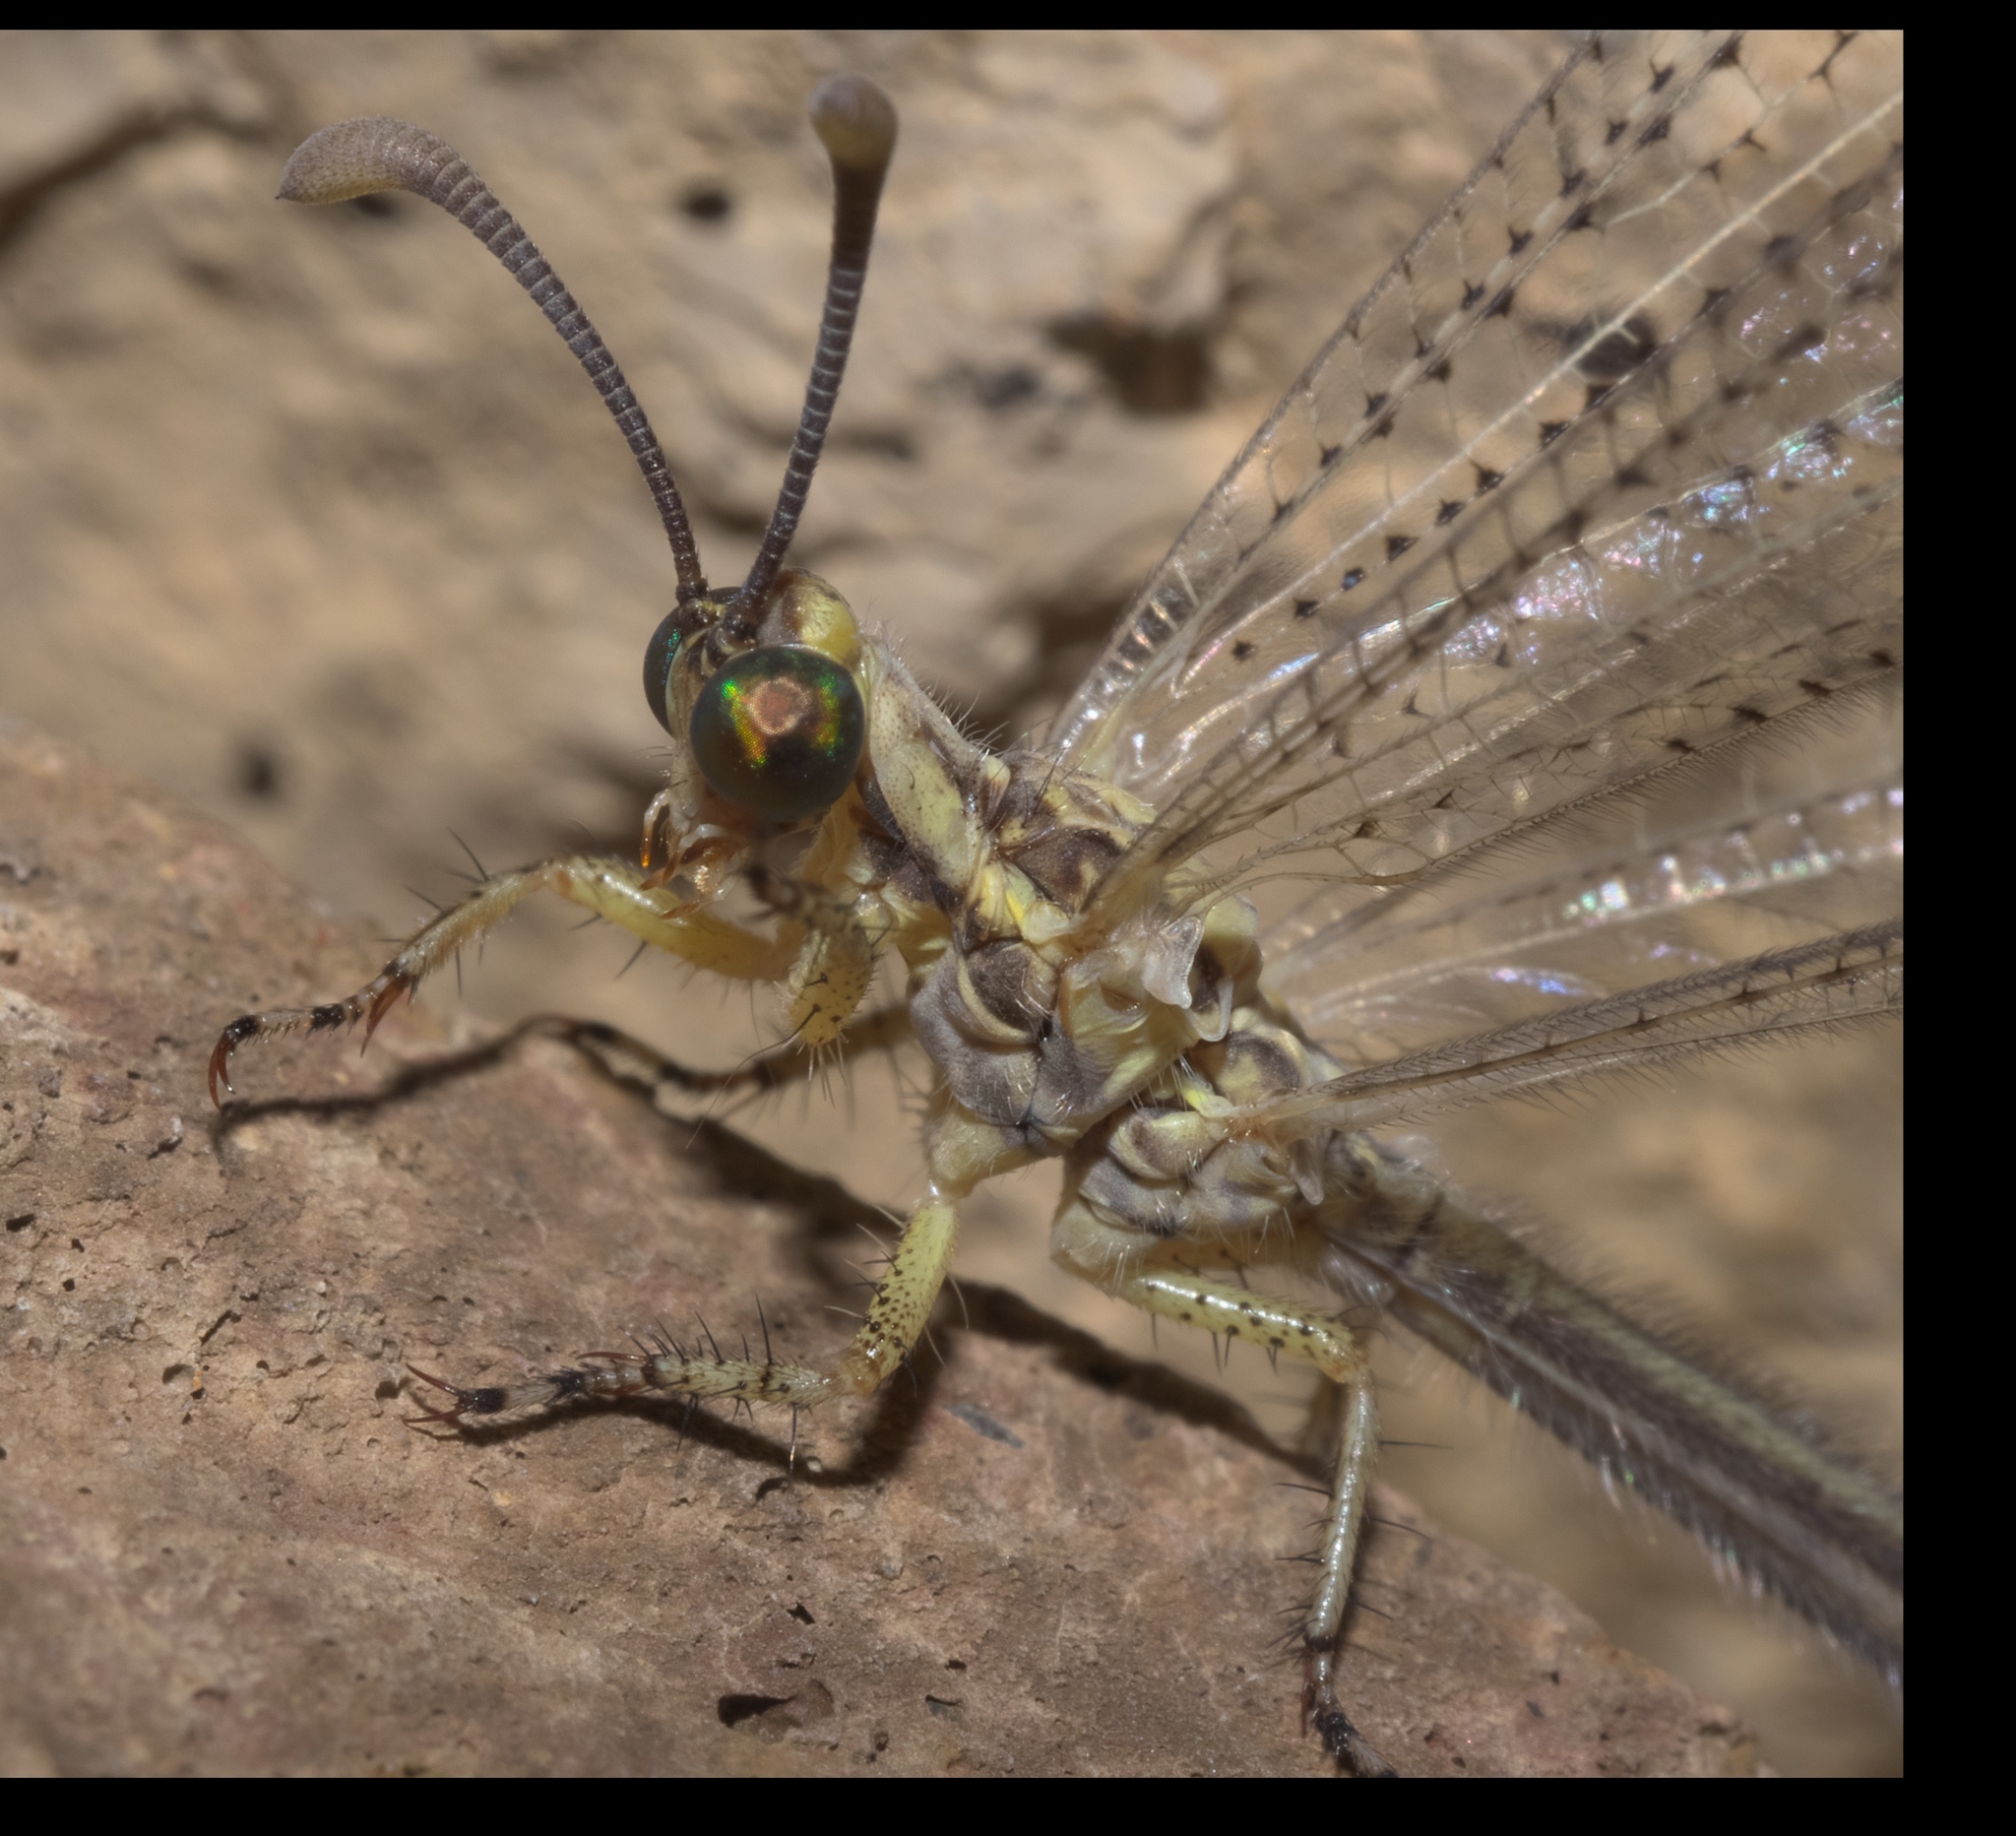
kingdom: Animalia
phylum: Arthropoda
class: Insecta
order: Neuroptera
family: Myrmeleontidae
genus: Brachynemurus
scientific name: Brachynemurus abdominalis
